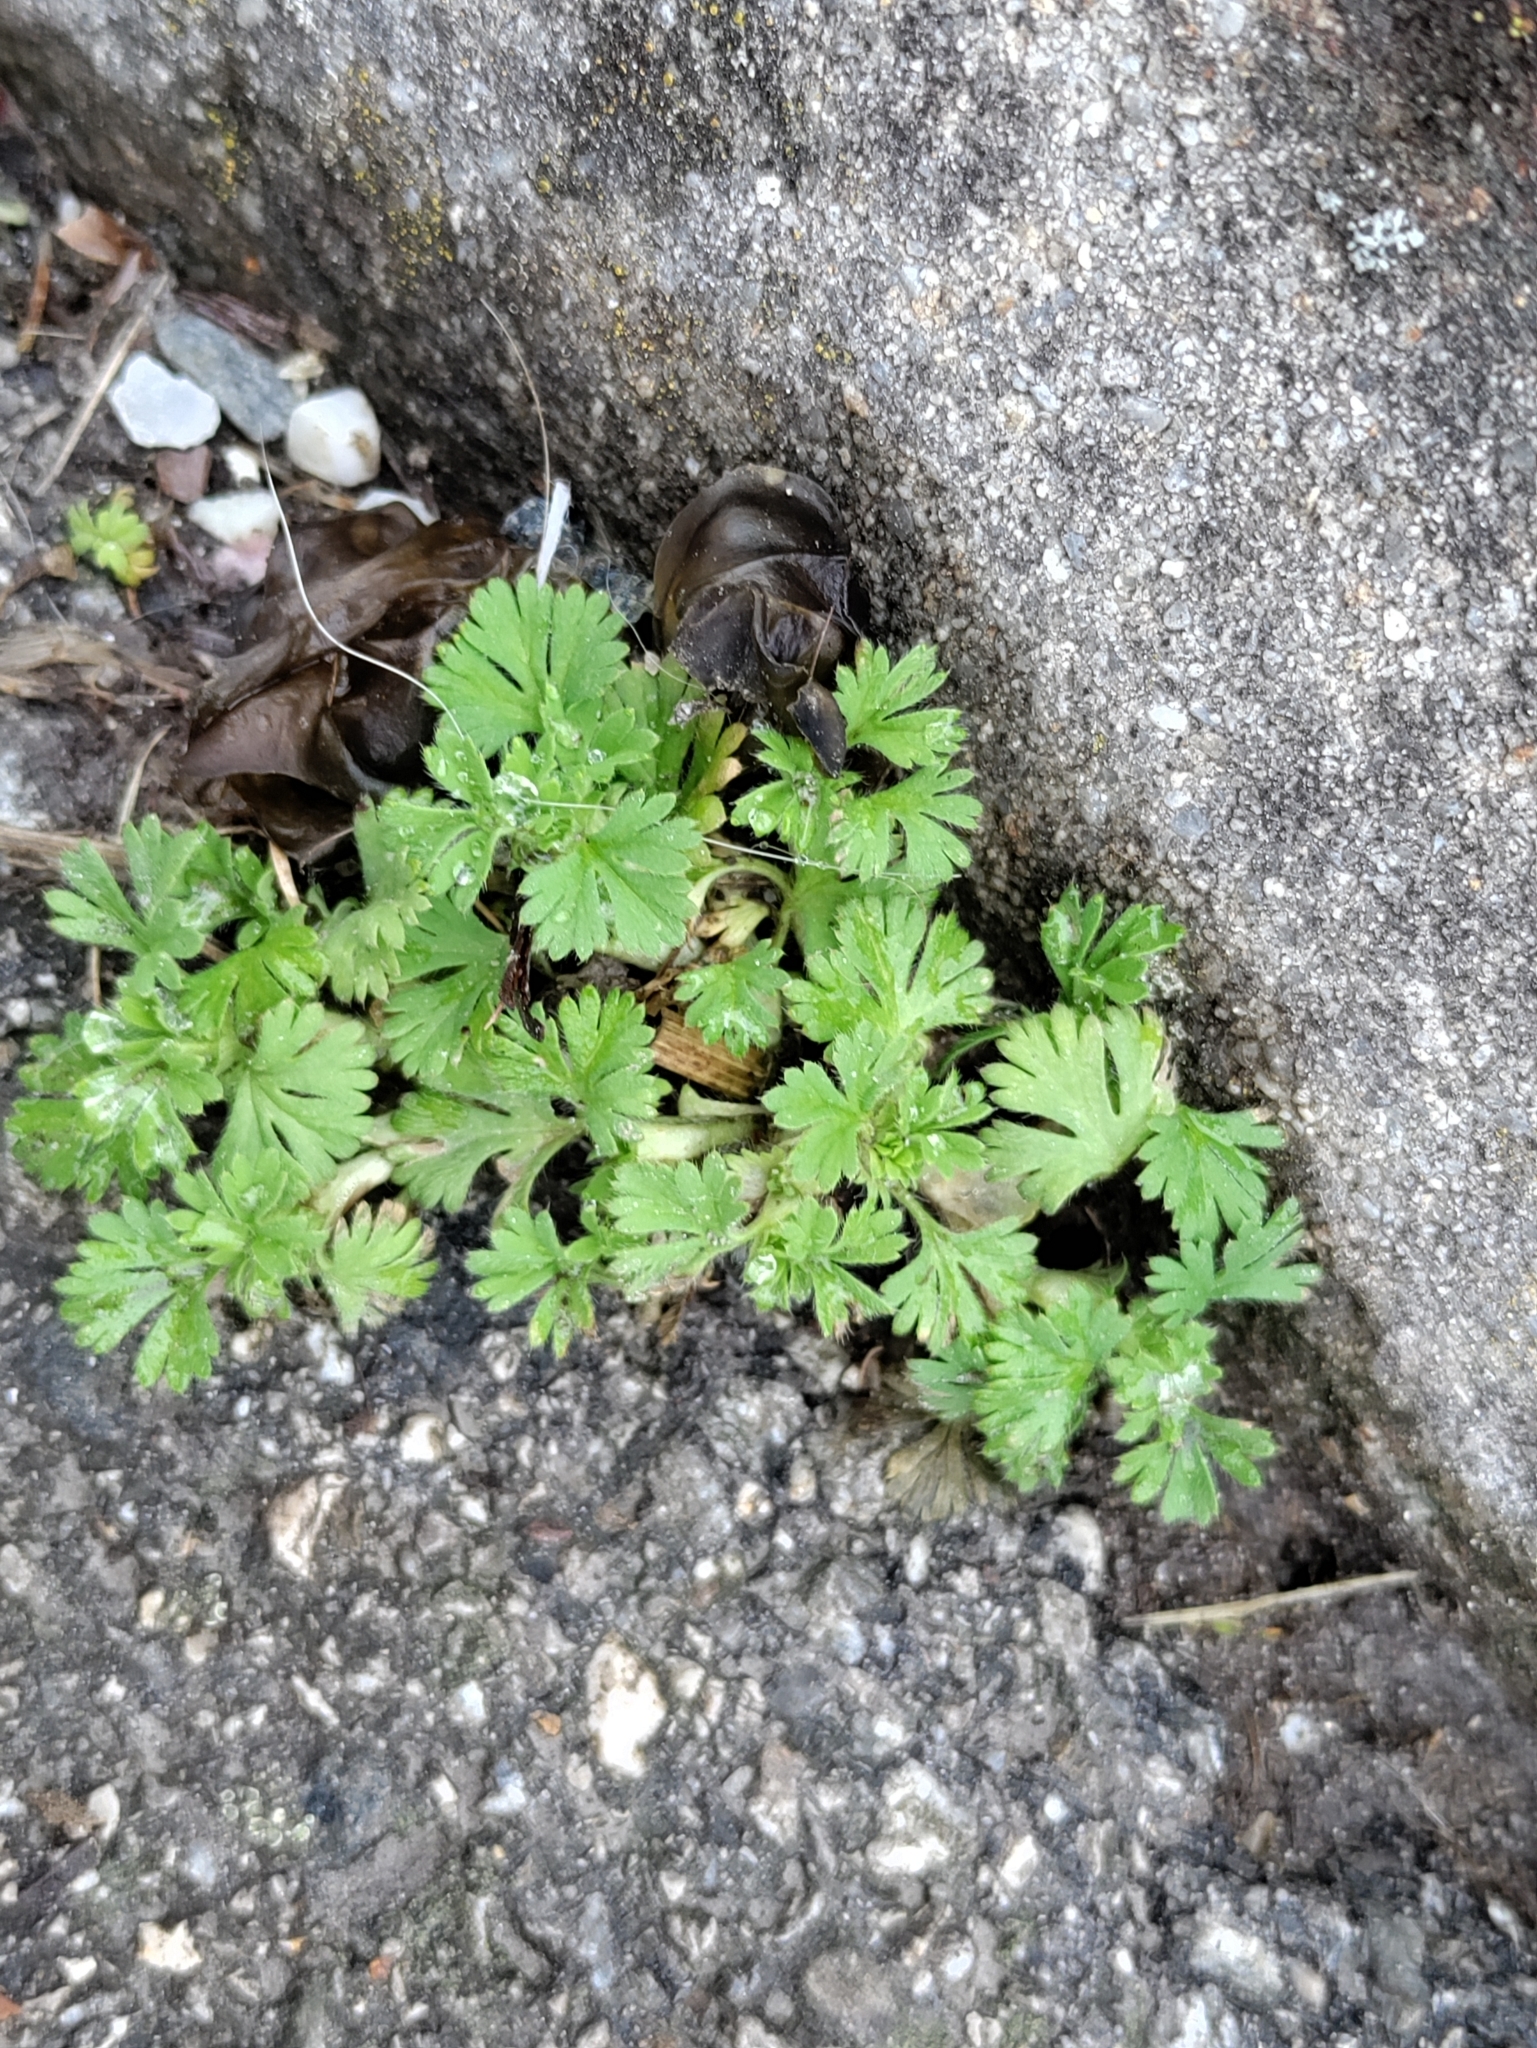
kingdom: Plantae
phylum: Tracheophyta
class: Magnoliopsida
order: Rosales
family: Rosaceae
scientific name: Rosaceae
